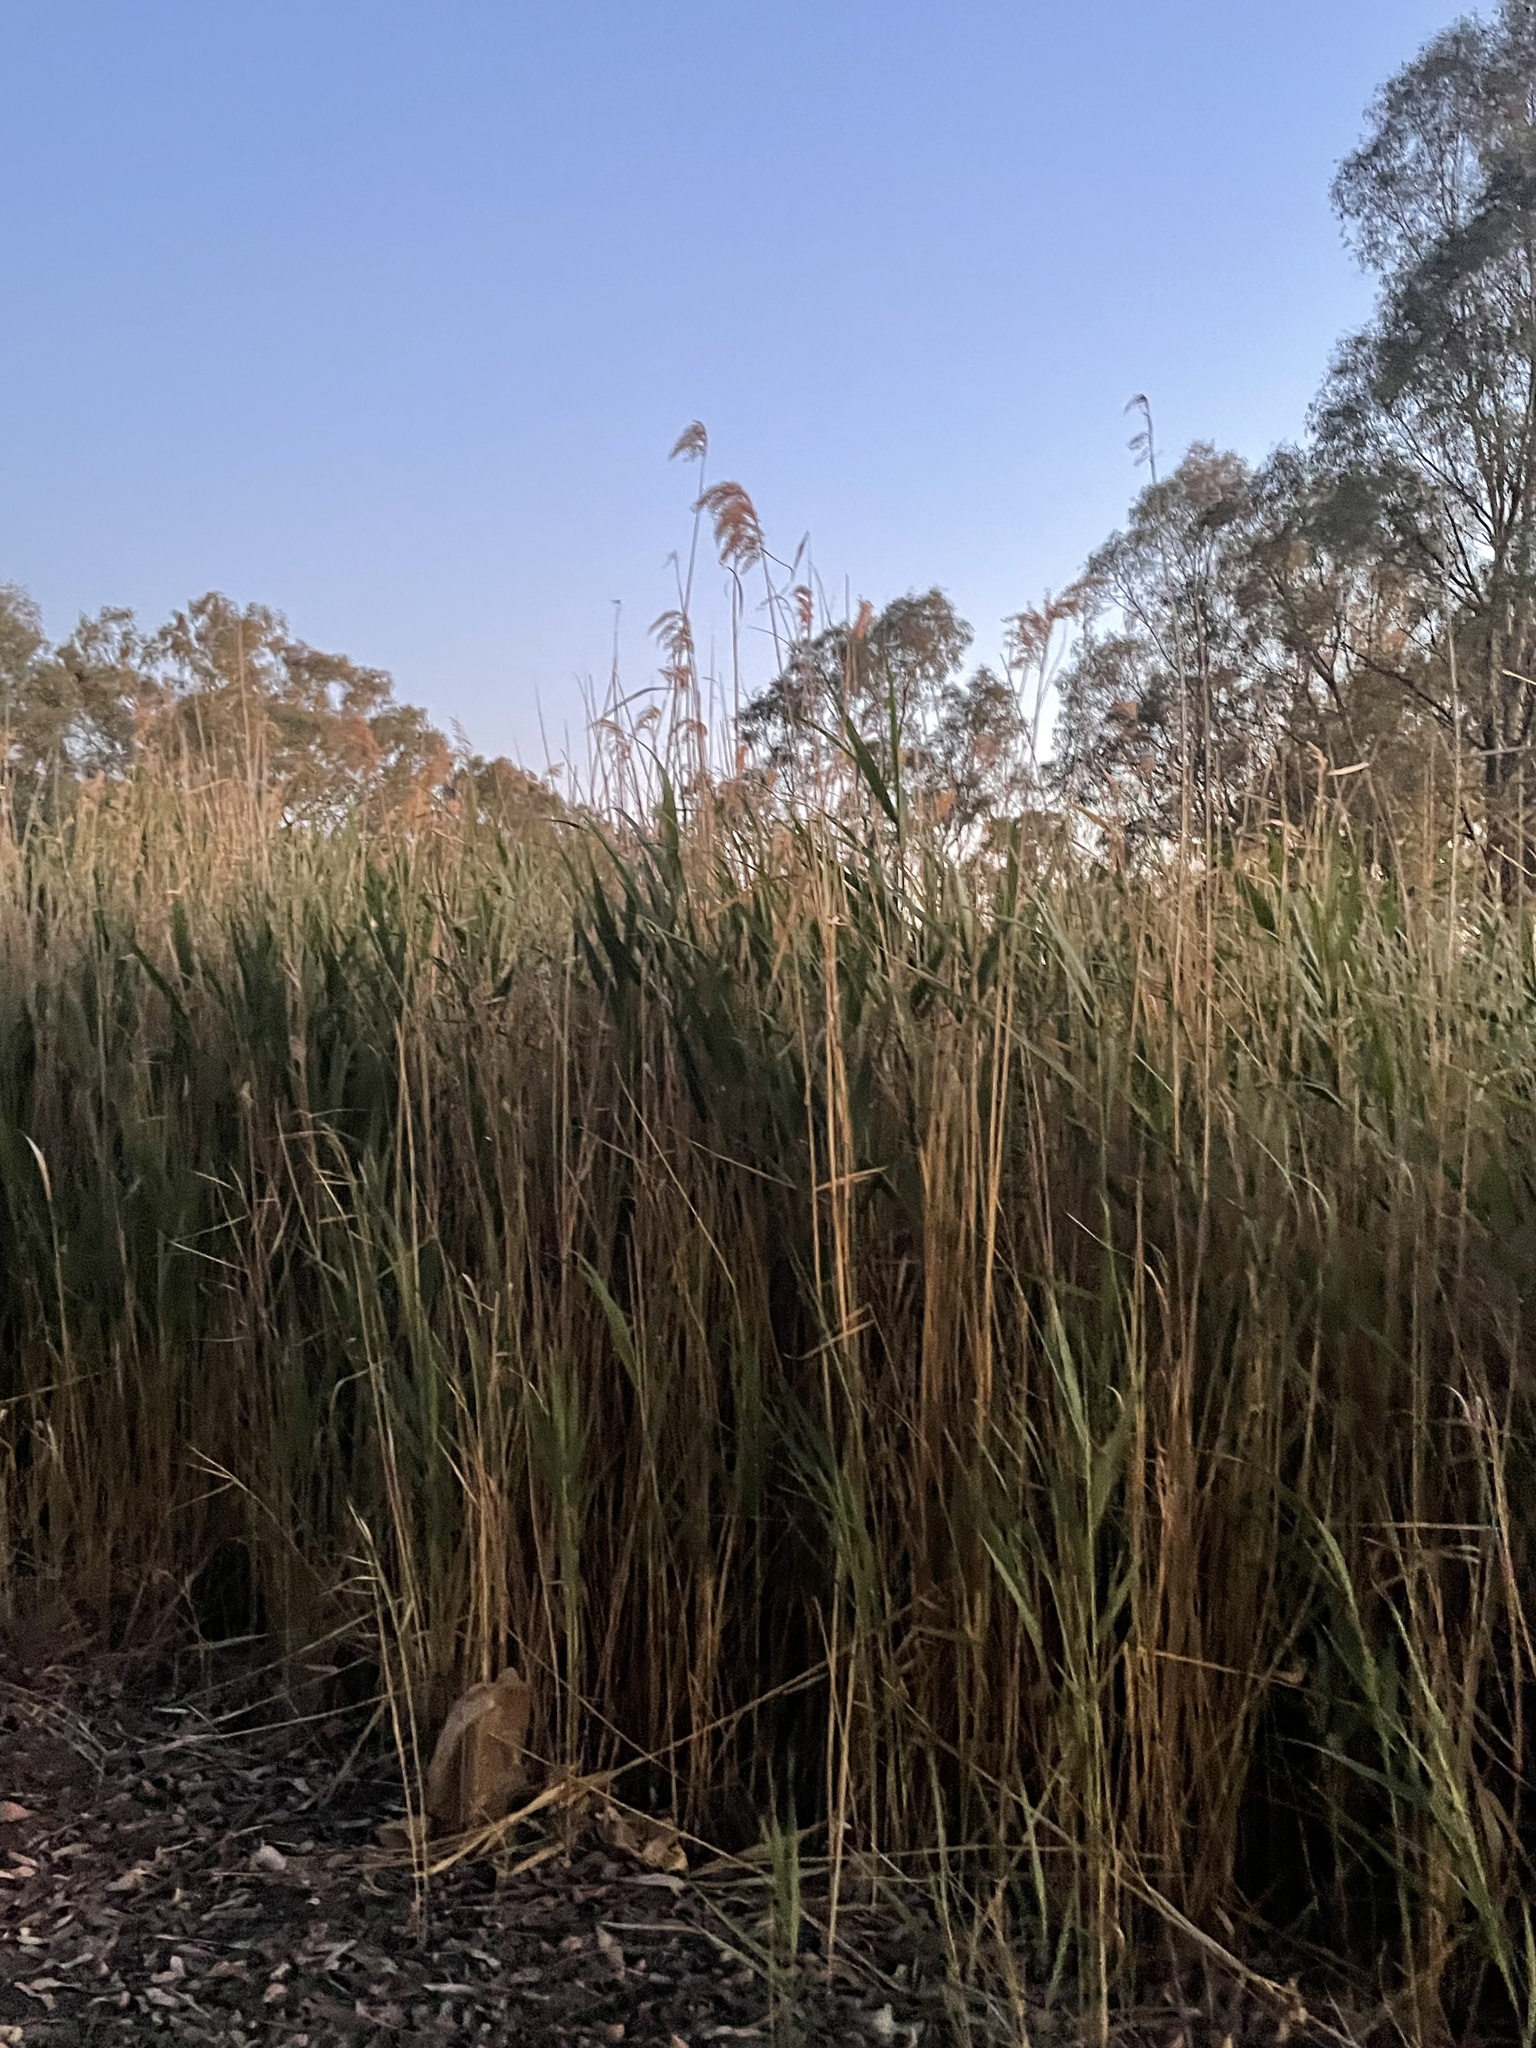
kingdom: Plantae
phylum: Tracheophyta
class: Liliopsida
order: Poales
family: Poaceae
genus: Phragmites
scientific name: Phragmites australis
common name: Common reed
